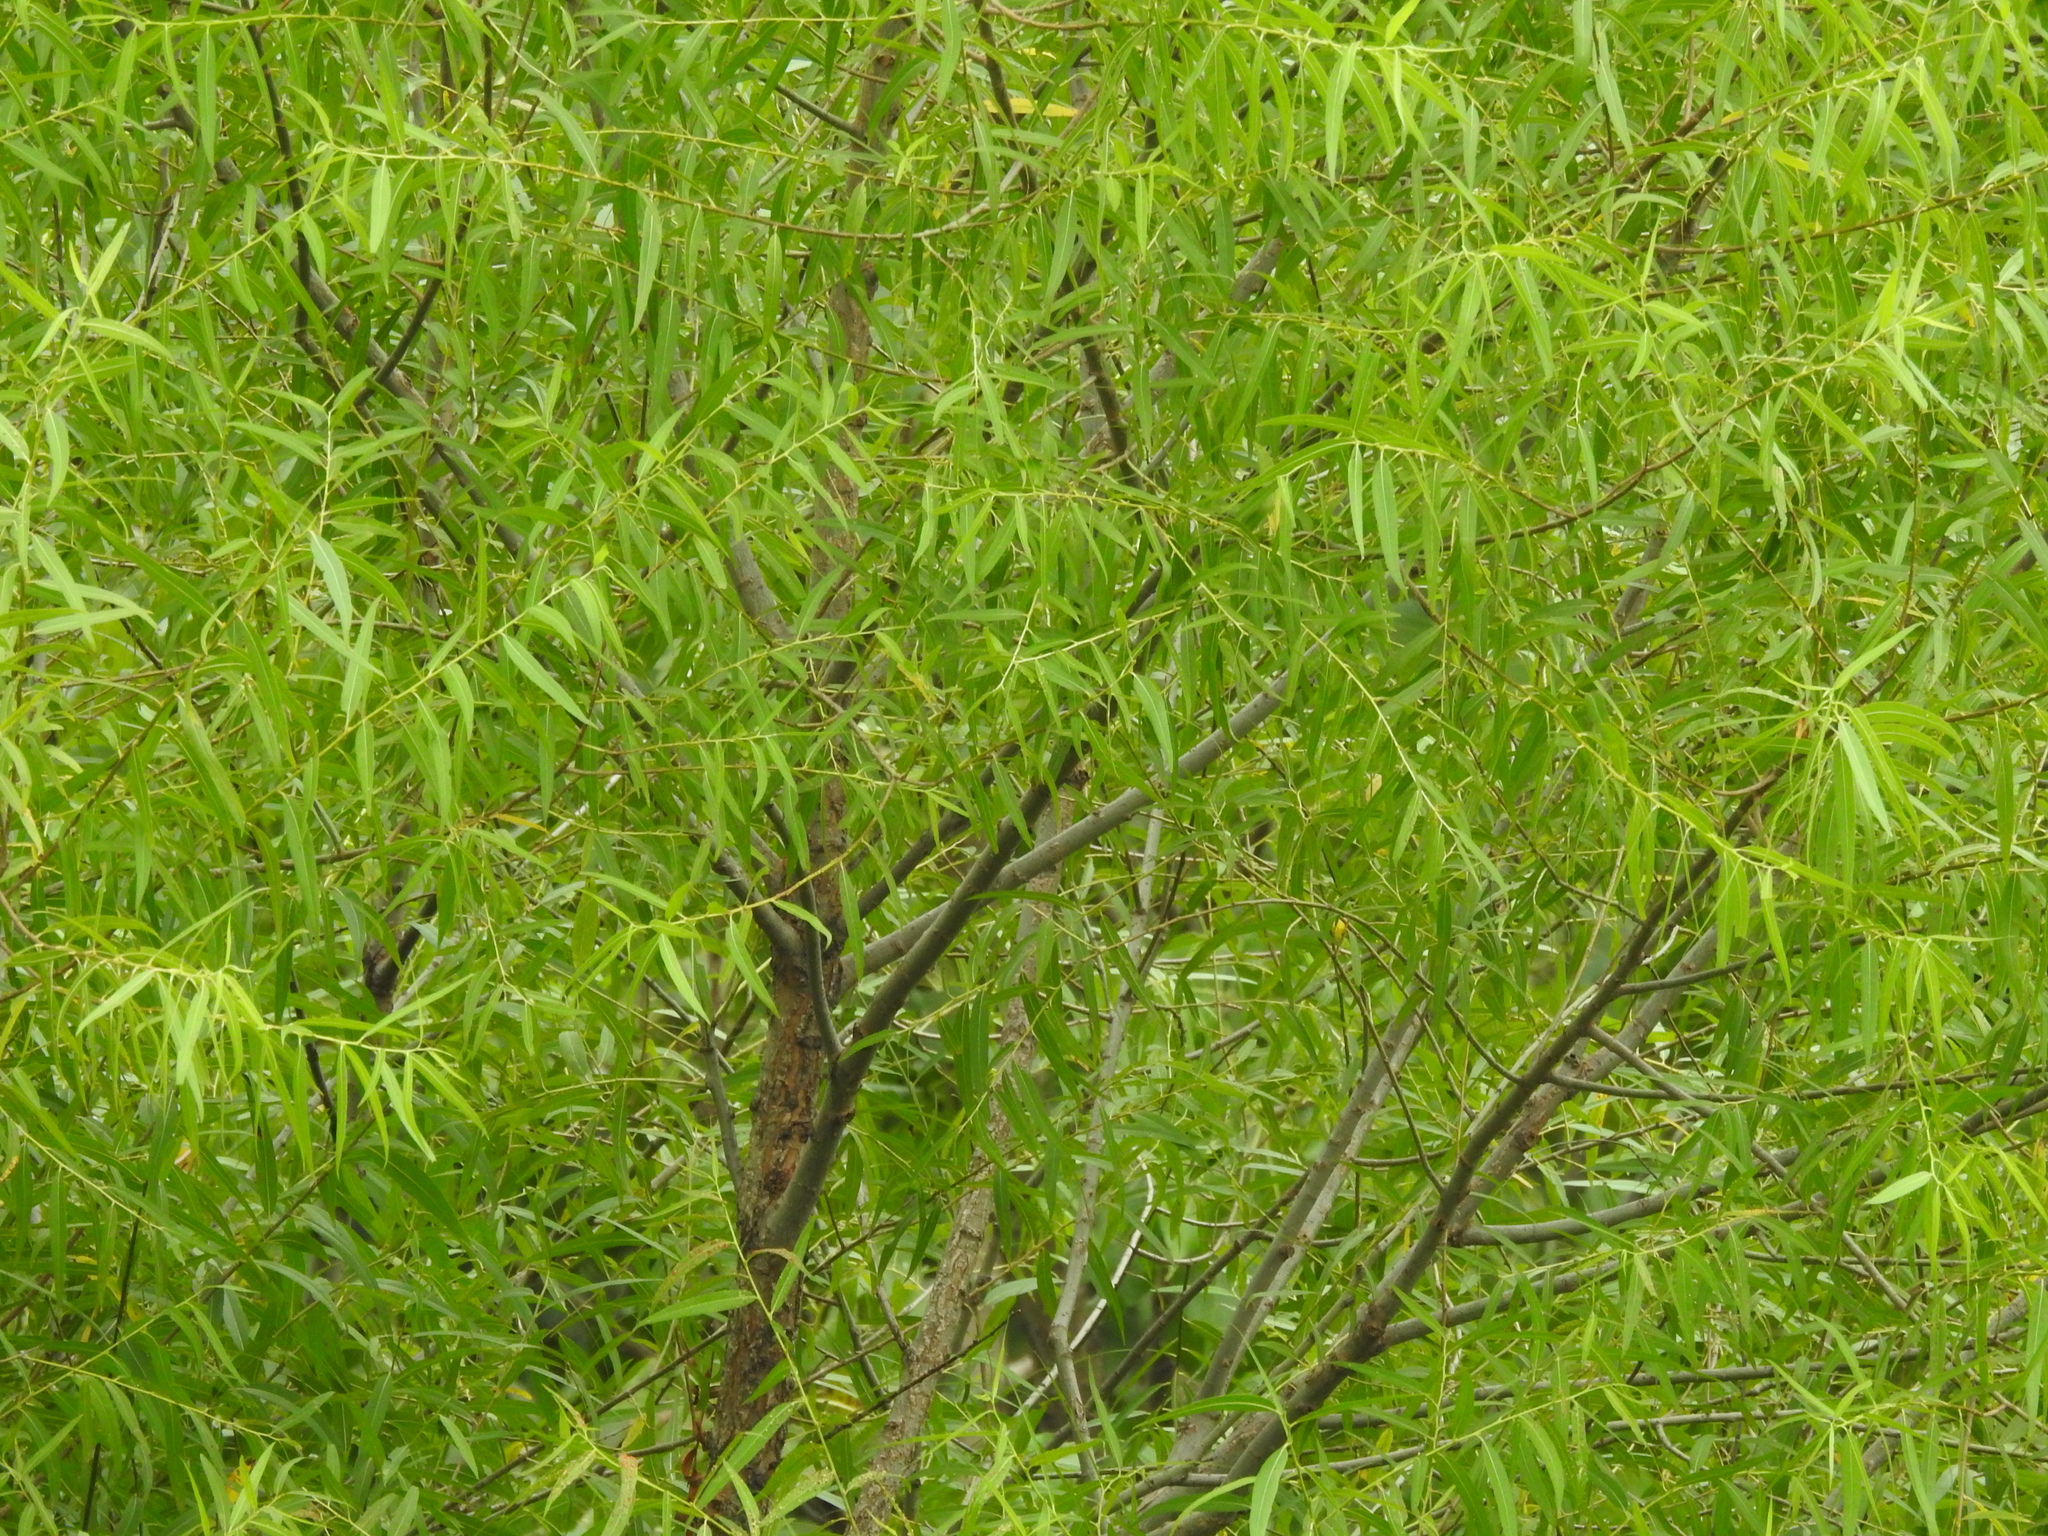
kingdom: Plantae
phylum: Tracheophyta
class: Magnoliopsida
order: Malpighiales
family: Salicaceae
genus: Salix
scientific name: Salix nigra
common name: Black willow
